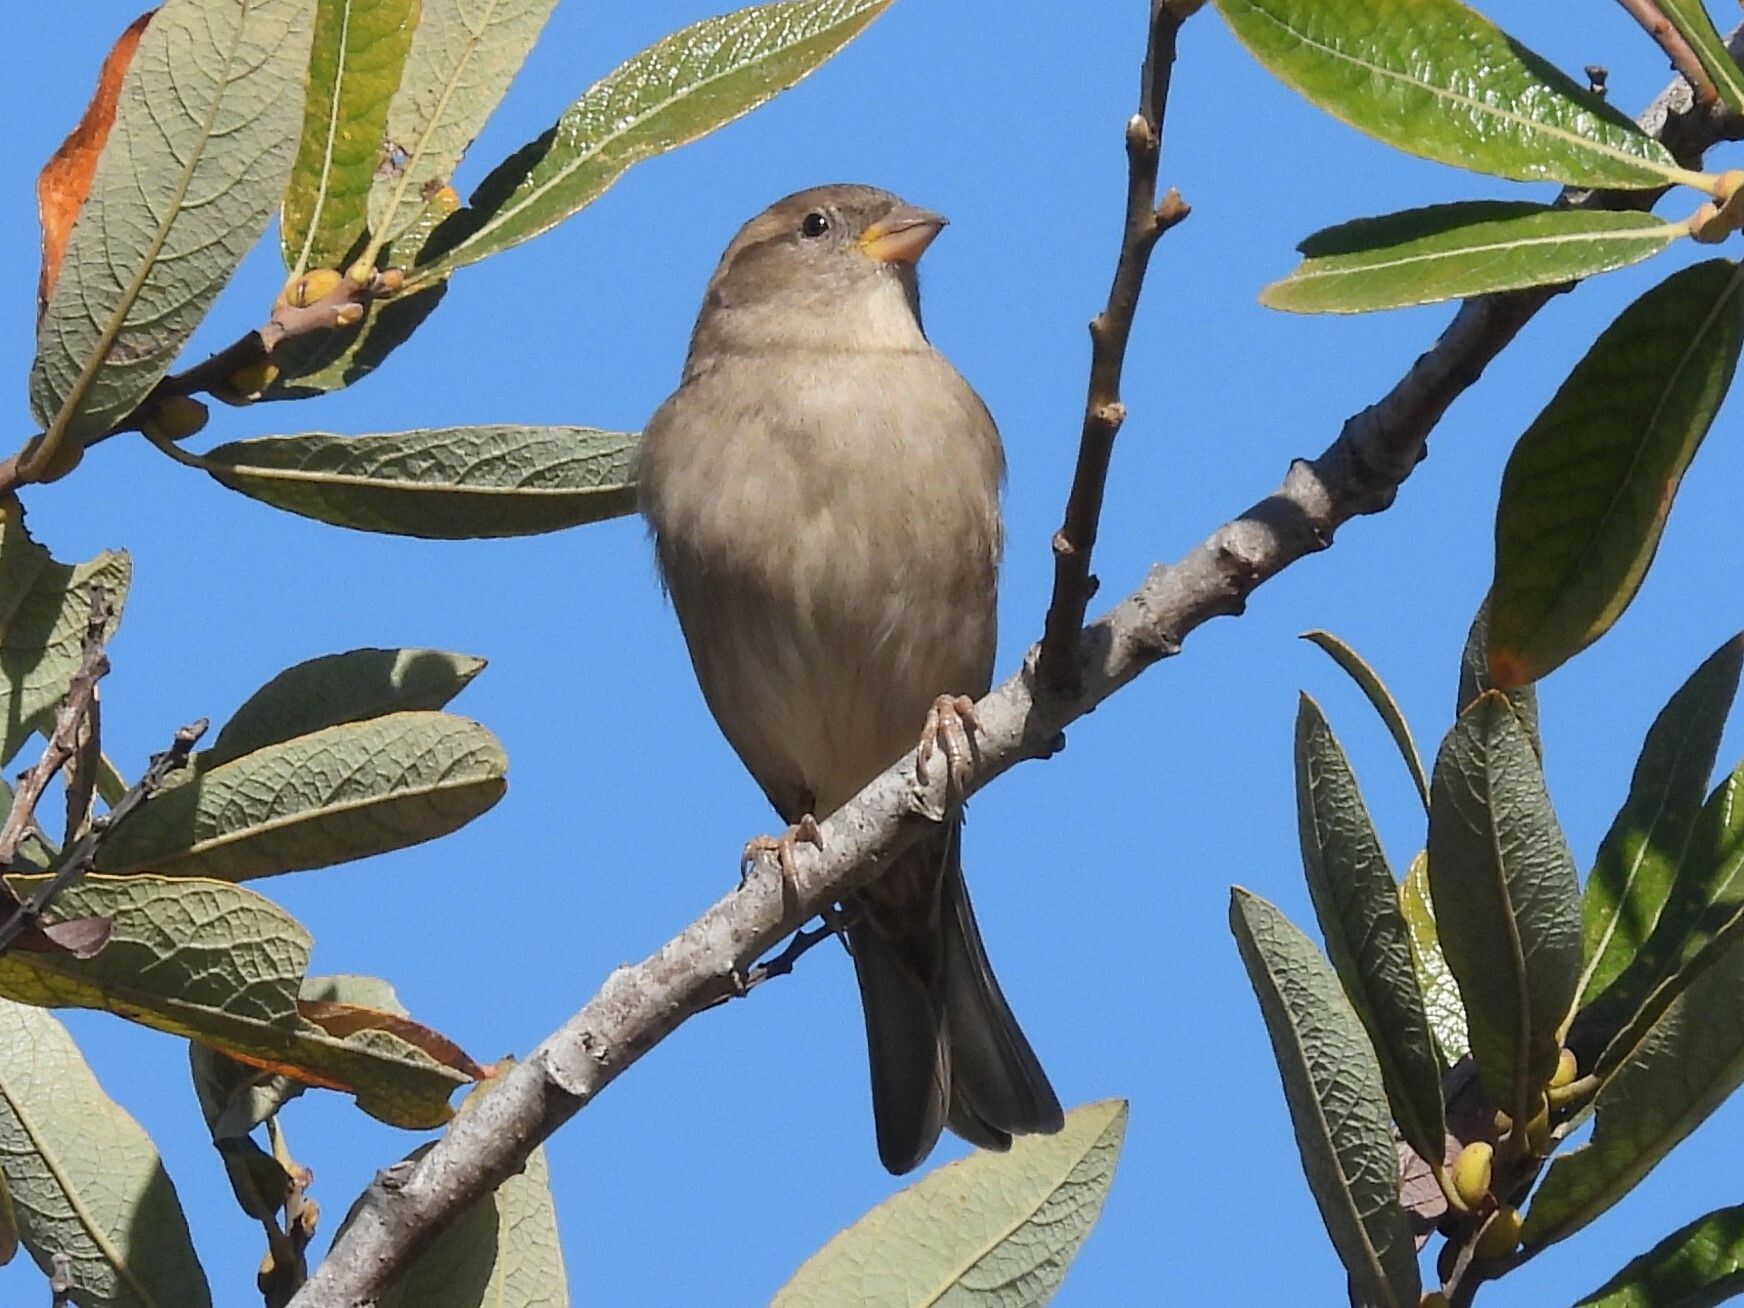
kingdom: Animalia
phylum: Chordata
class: Aves
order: Passeriformes
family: Passeridae
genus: Passer
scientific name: Passer domesticus
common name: House sparrow
